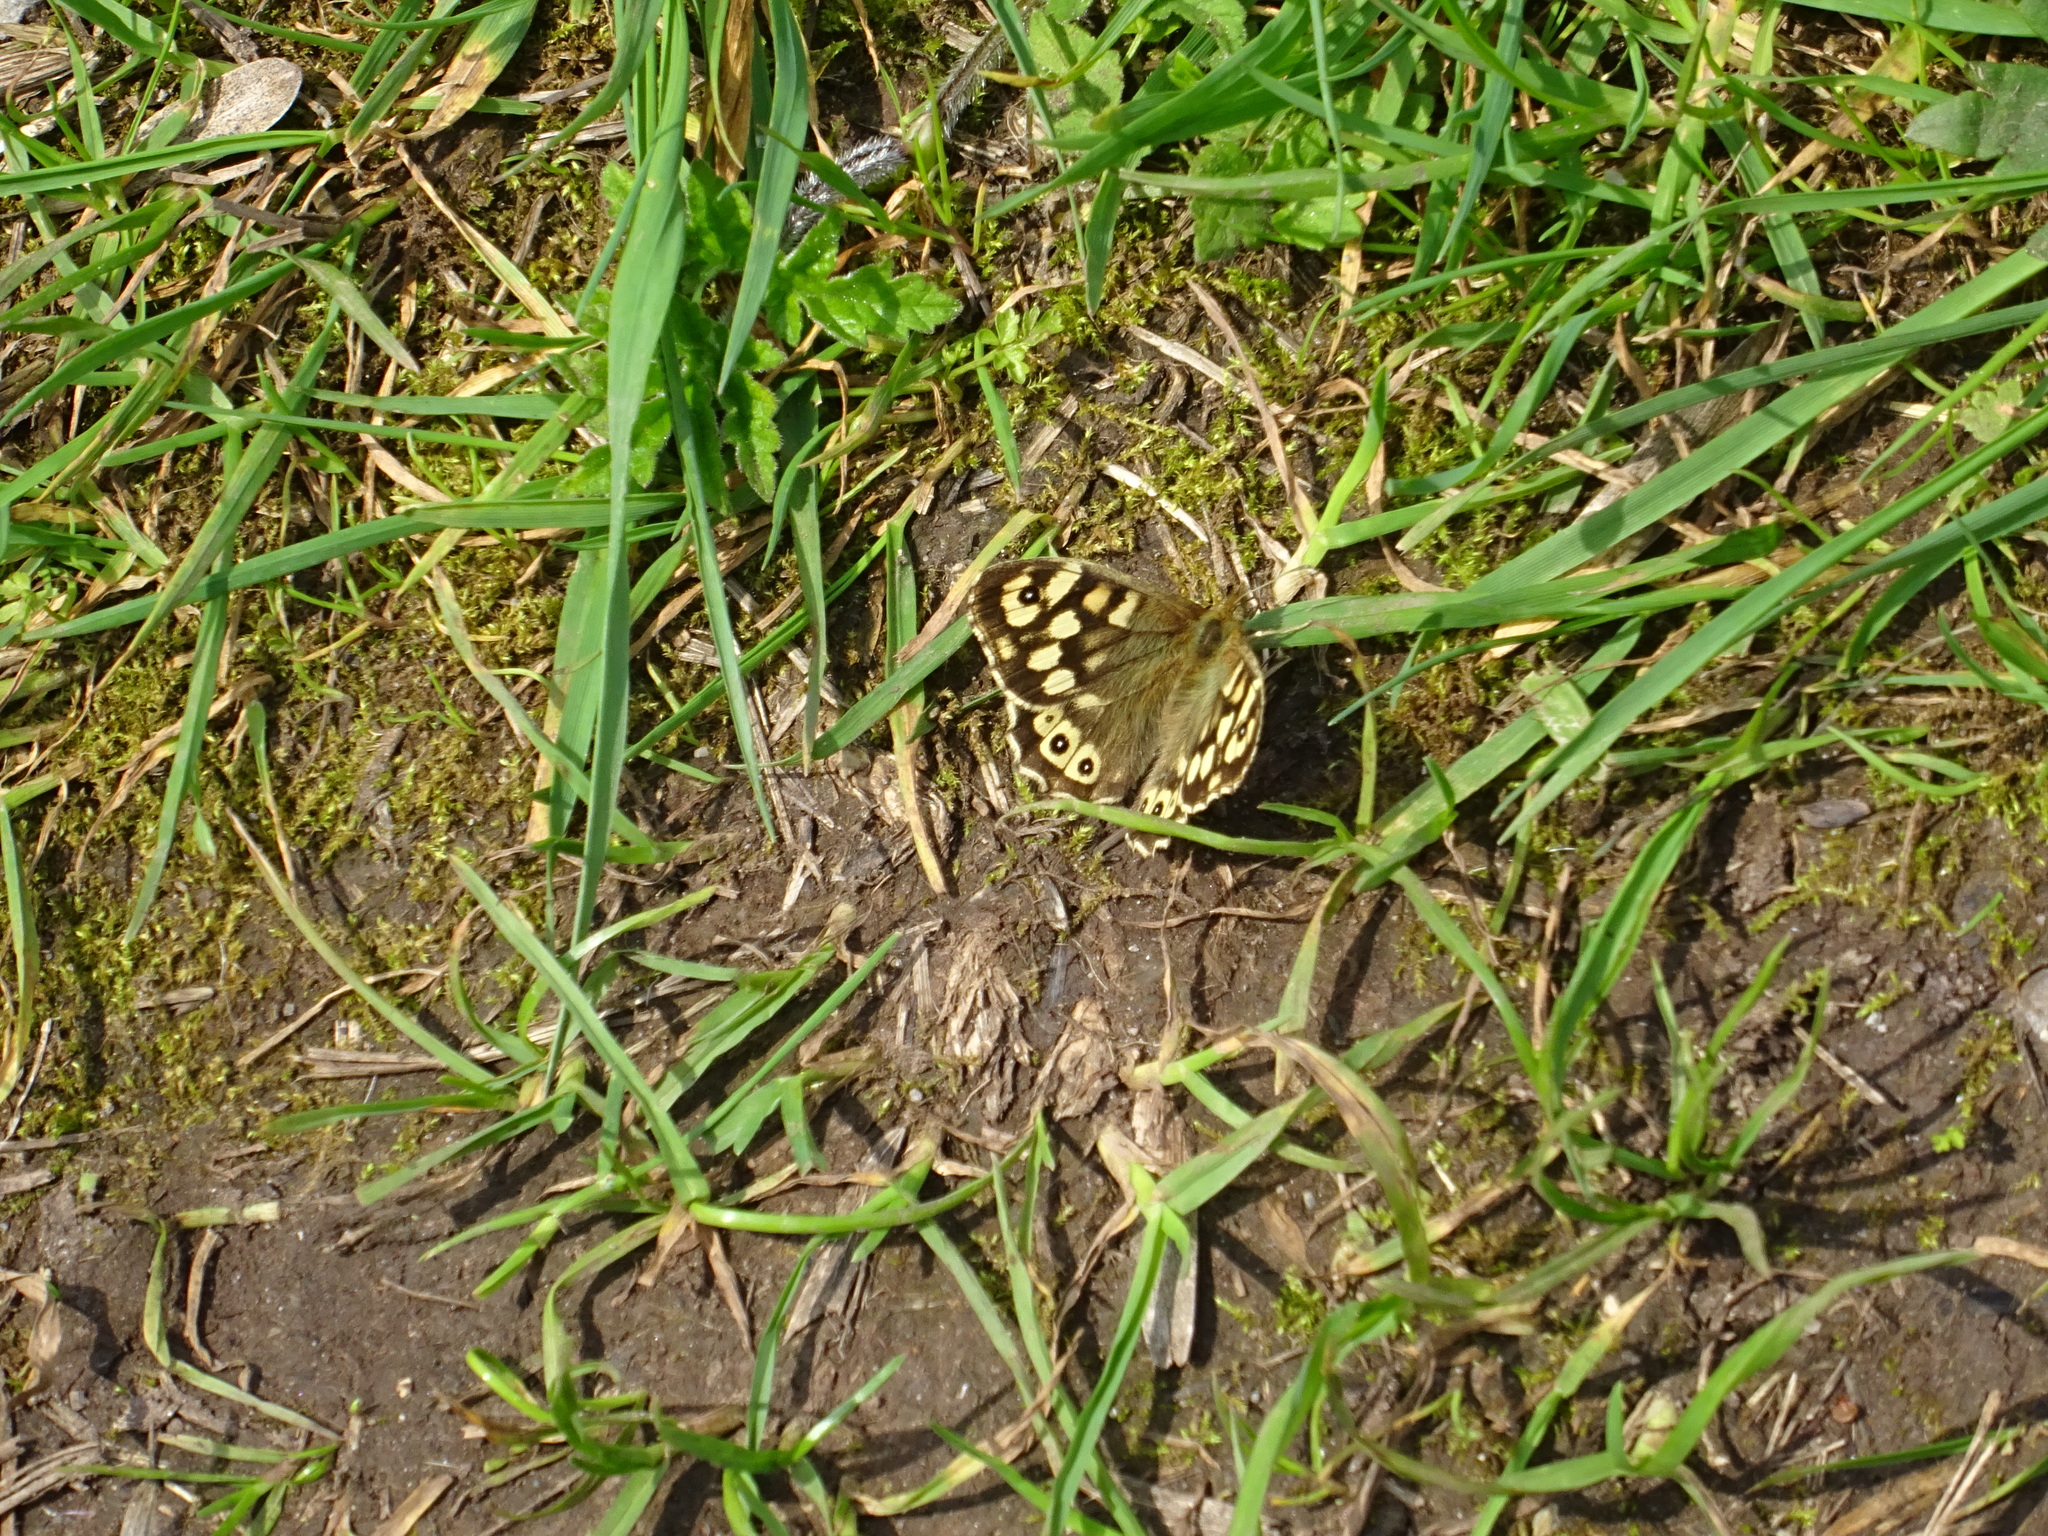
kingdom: Animalia
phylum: Arthropoda
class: Insecta
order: Lepidoptera
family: Nymphalidae
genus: Pararge
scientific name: Pararge aegeria
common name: Speckled wood
